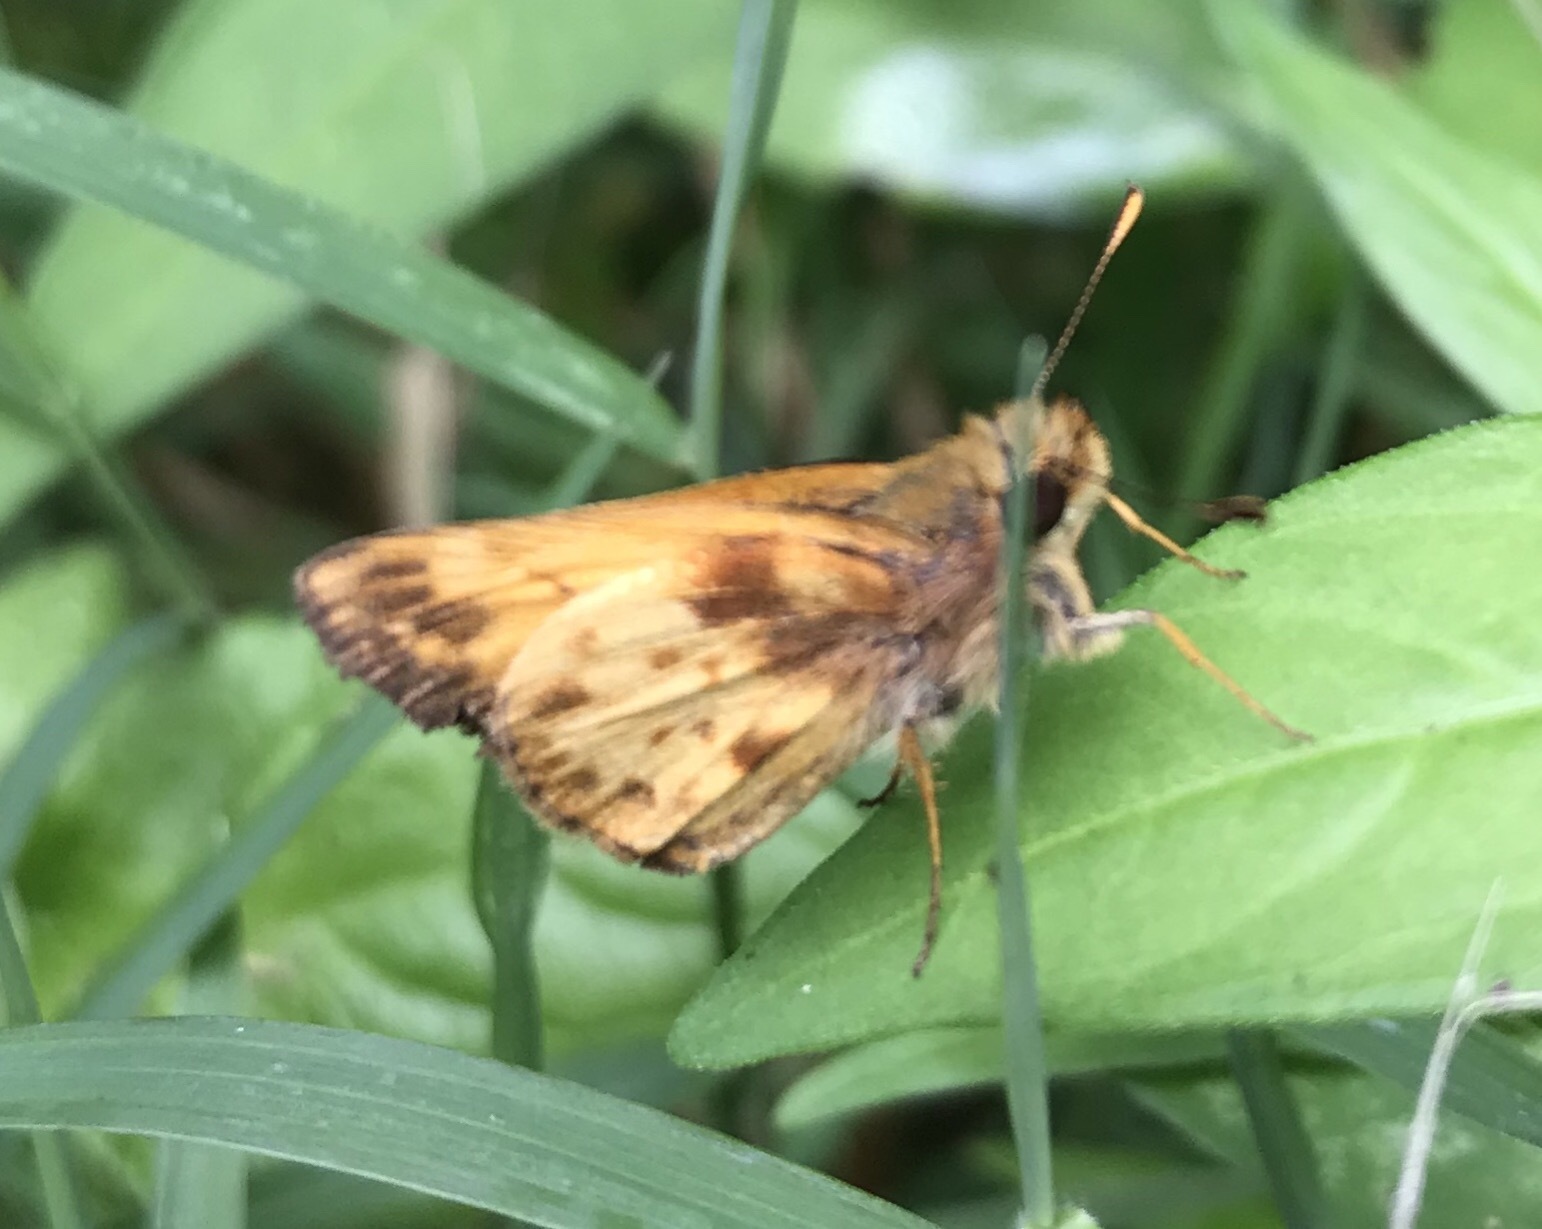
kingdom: Animalia
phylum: Arthropoda
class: Insecta
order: Lepidoptera
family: Hesperiidae
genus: Lon
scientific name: Lon zabulon
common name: Zabulon skipper
